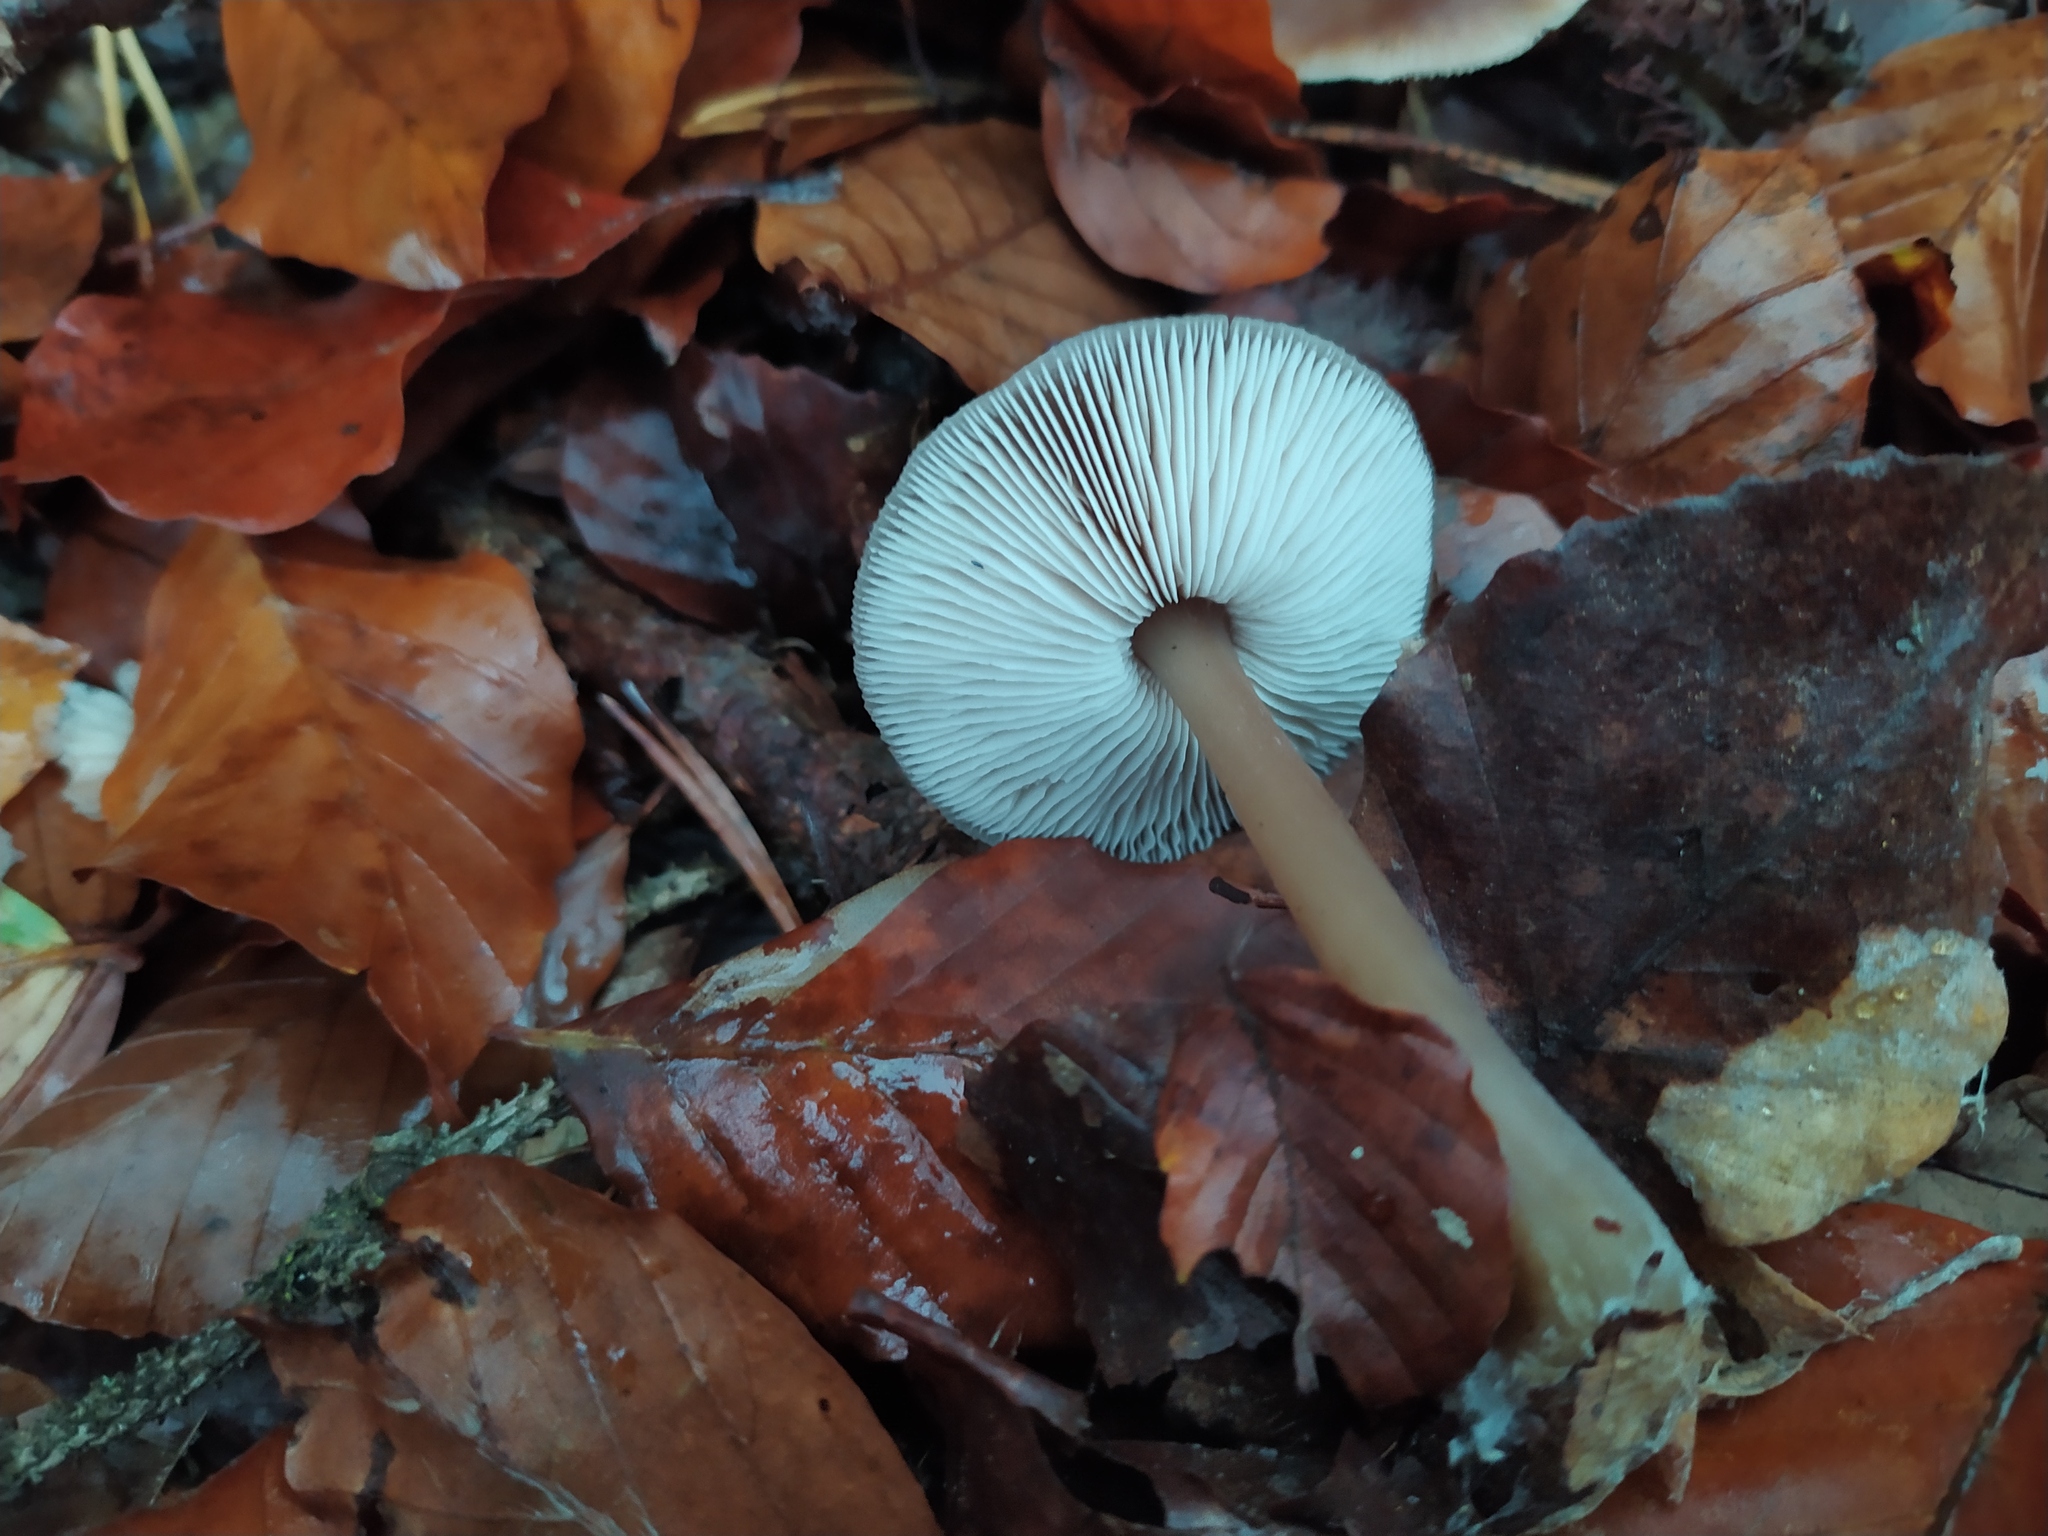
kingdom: Fungi
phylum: Basidiomycota
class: Agaricomycetes
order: Agaricales
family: Omphalotaceae
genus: Rhodocollybia
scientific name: Rhodocollybia butyracea
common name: Butter cap
